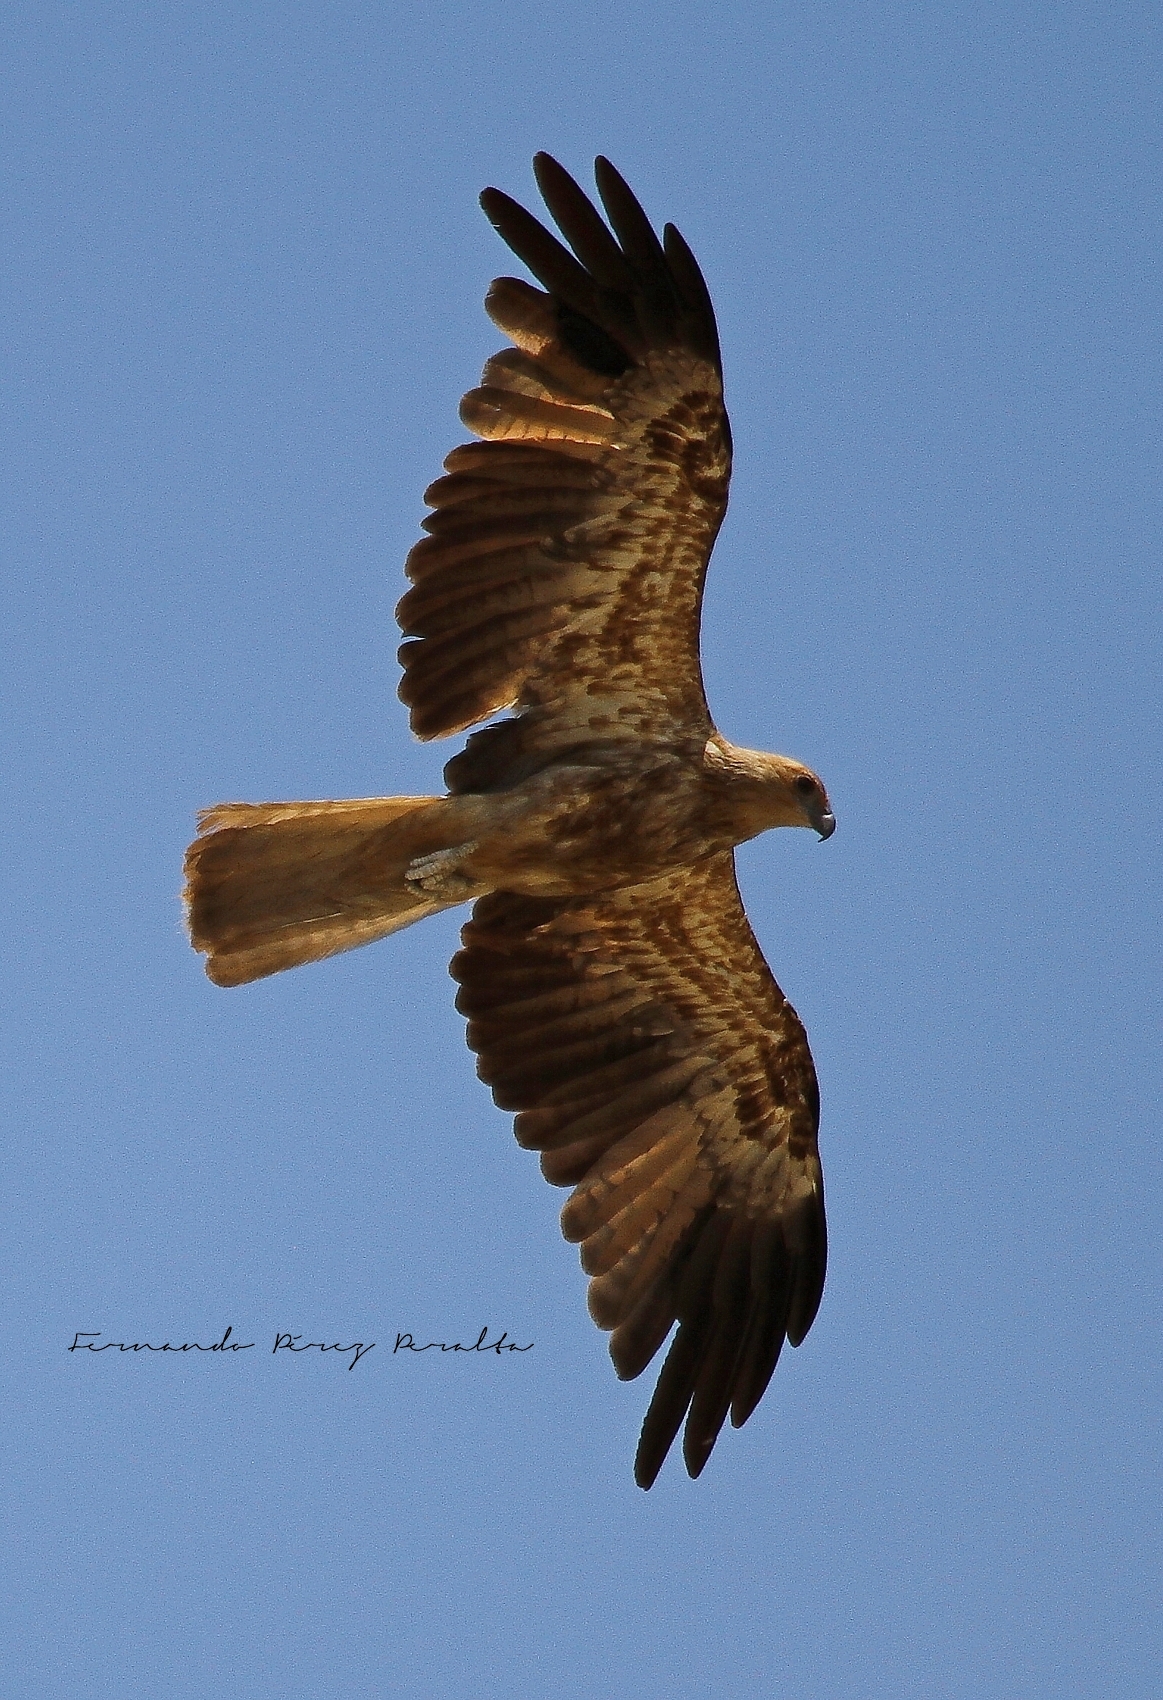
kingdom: Animalia
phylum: Chordata
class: Aves
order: Accipitriformes
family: Accipitridae
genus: Haliastur
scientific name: Haliastur sphenurus
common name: Whistling kite
